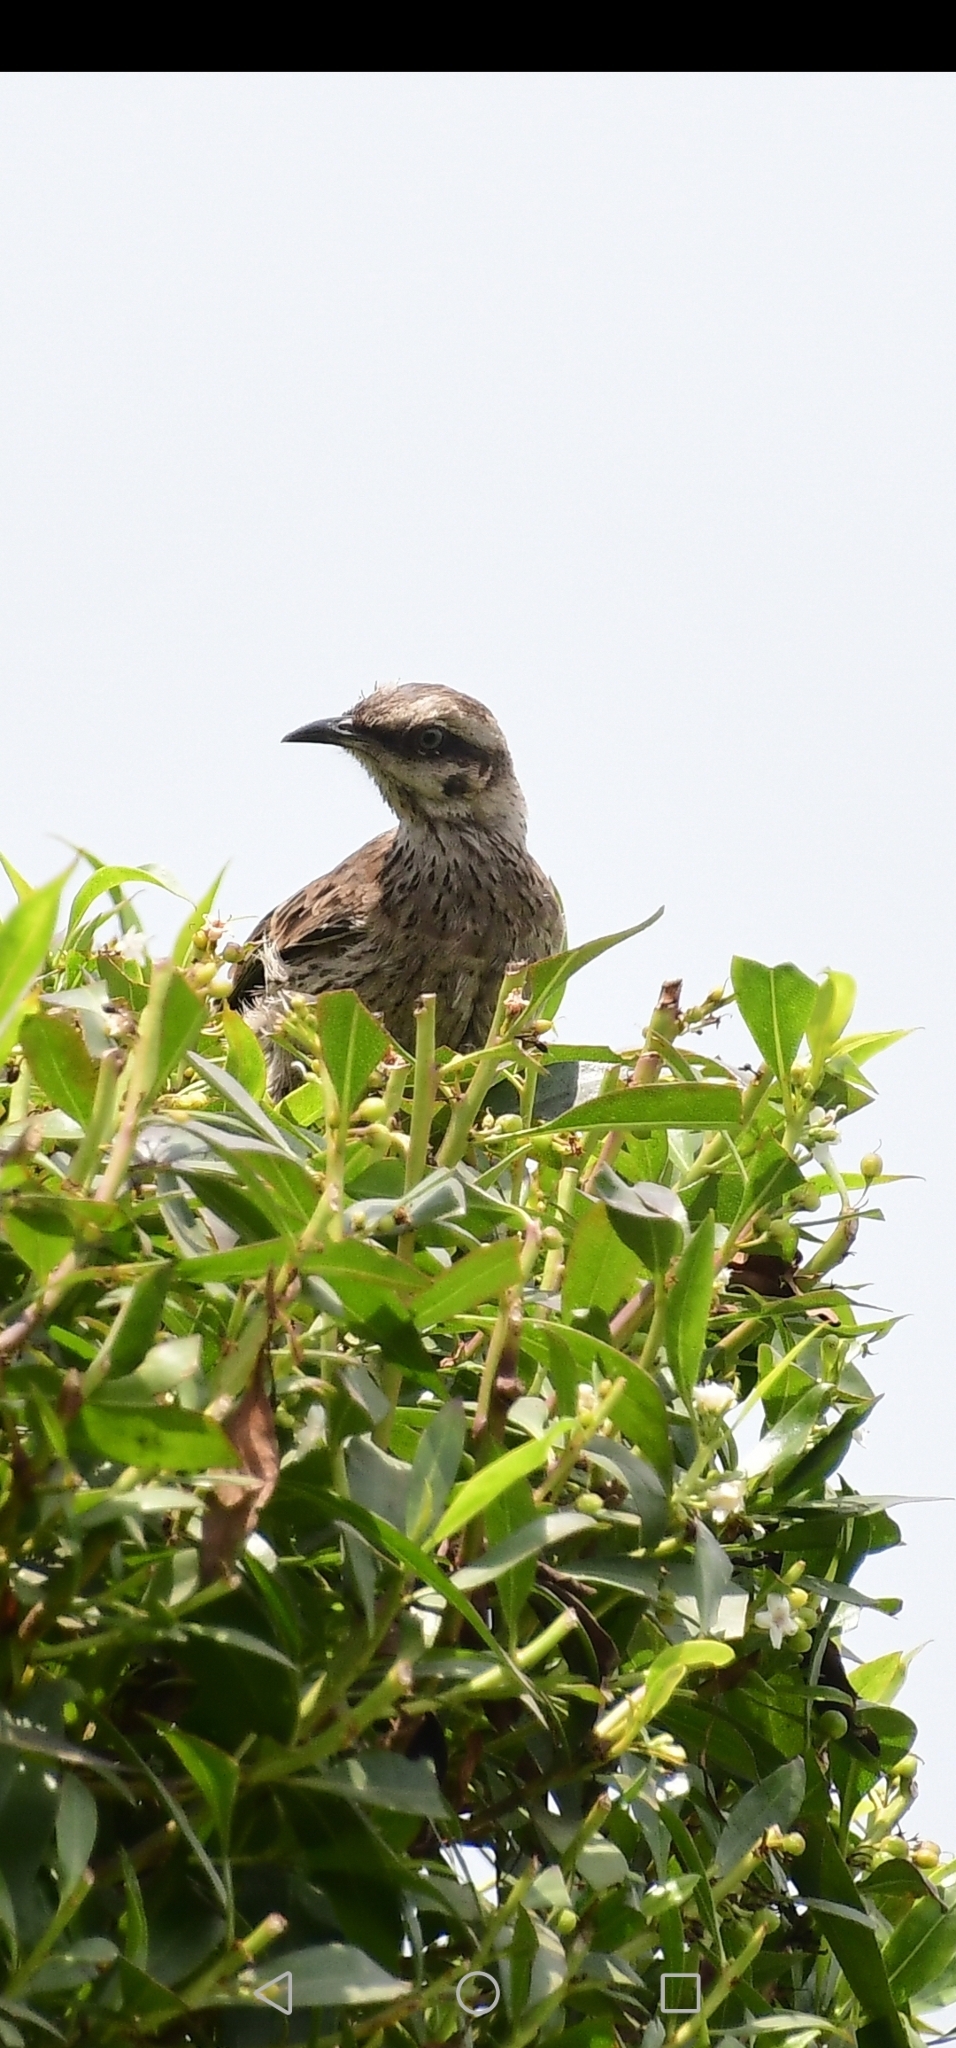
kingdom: Animalia
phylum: Chordata
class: Aves
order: Passeriformes
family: Mimidae
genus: Mimus
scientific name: Mimus longicaudatus
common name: Long-tailed mockingbird
